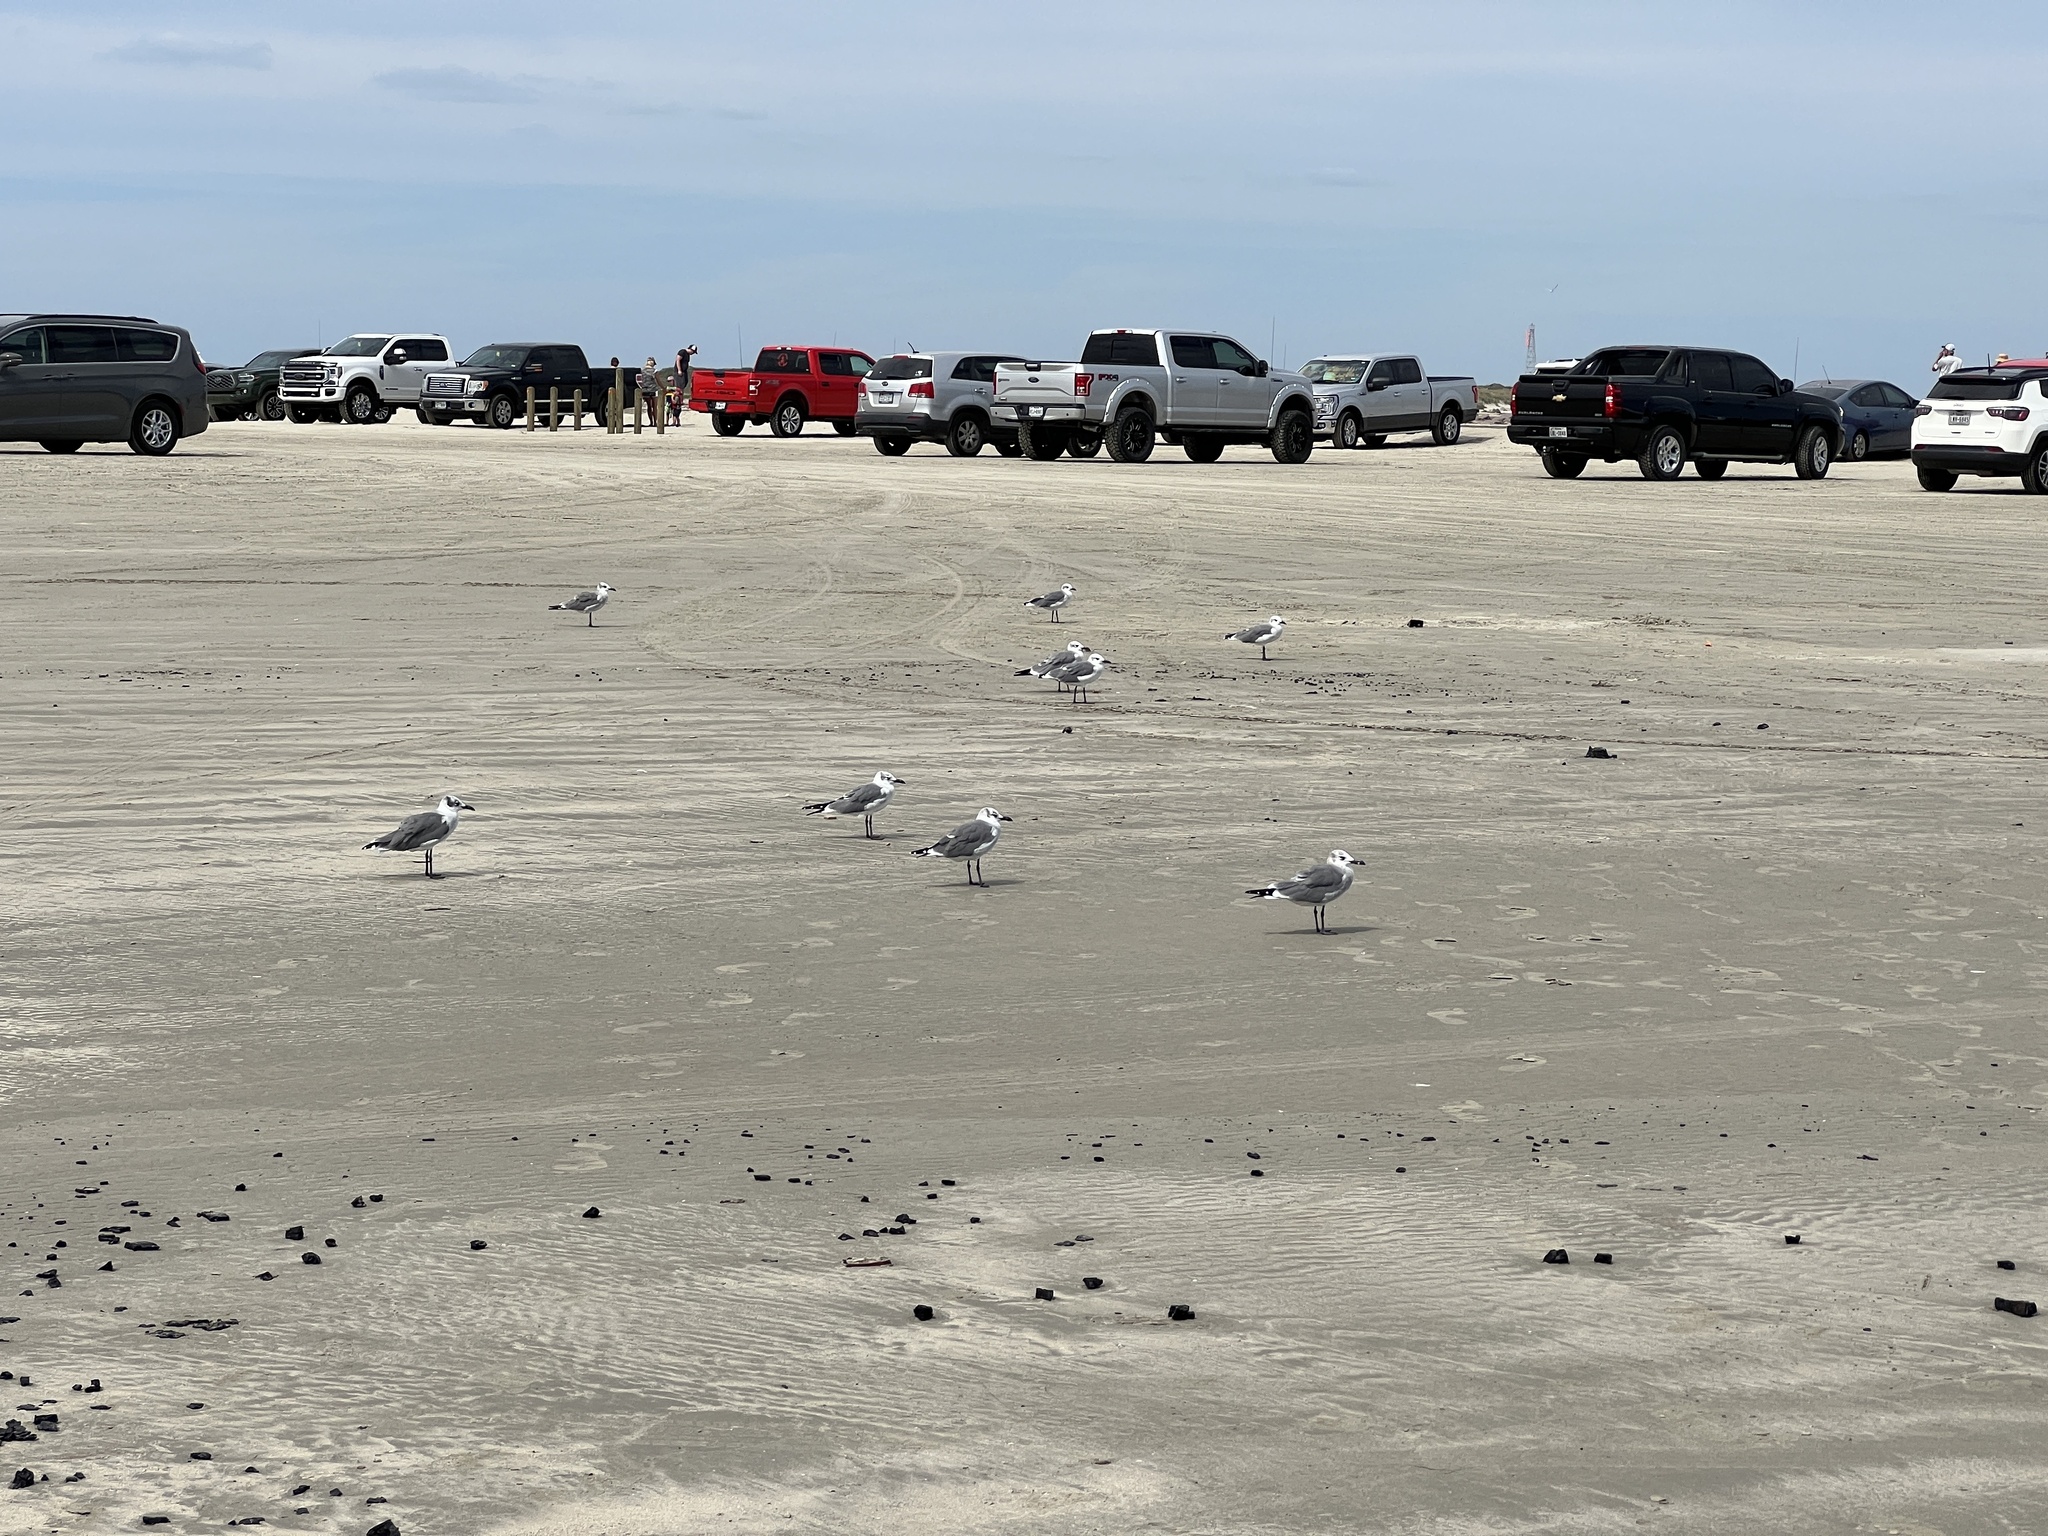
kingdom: Animalia
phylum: Chordata
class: Aves
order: Charadriiformes
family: Laridae
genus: Leucophaeus
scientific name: Leucophaeus atricilla
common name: Laughing gull
